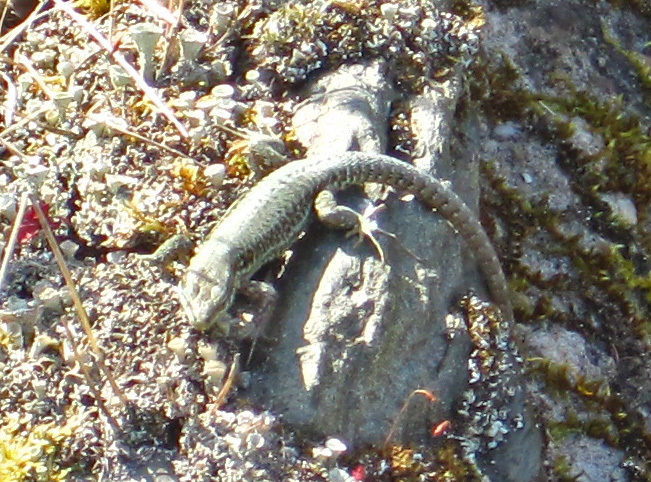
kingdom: Animalia
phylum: Chordata
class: Squamata
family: Lacertidae
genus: Podarcis
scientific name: Podarcis muralis
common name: Common wall lizard
